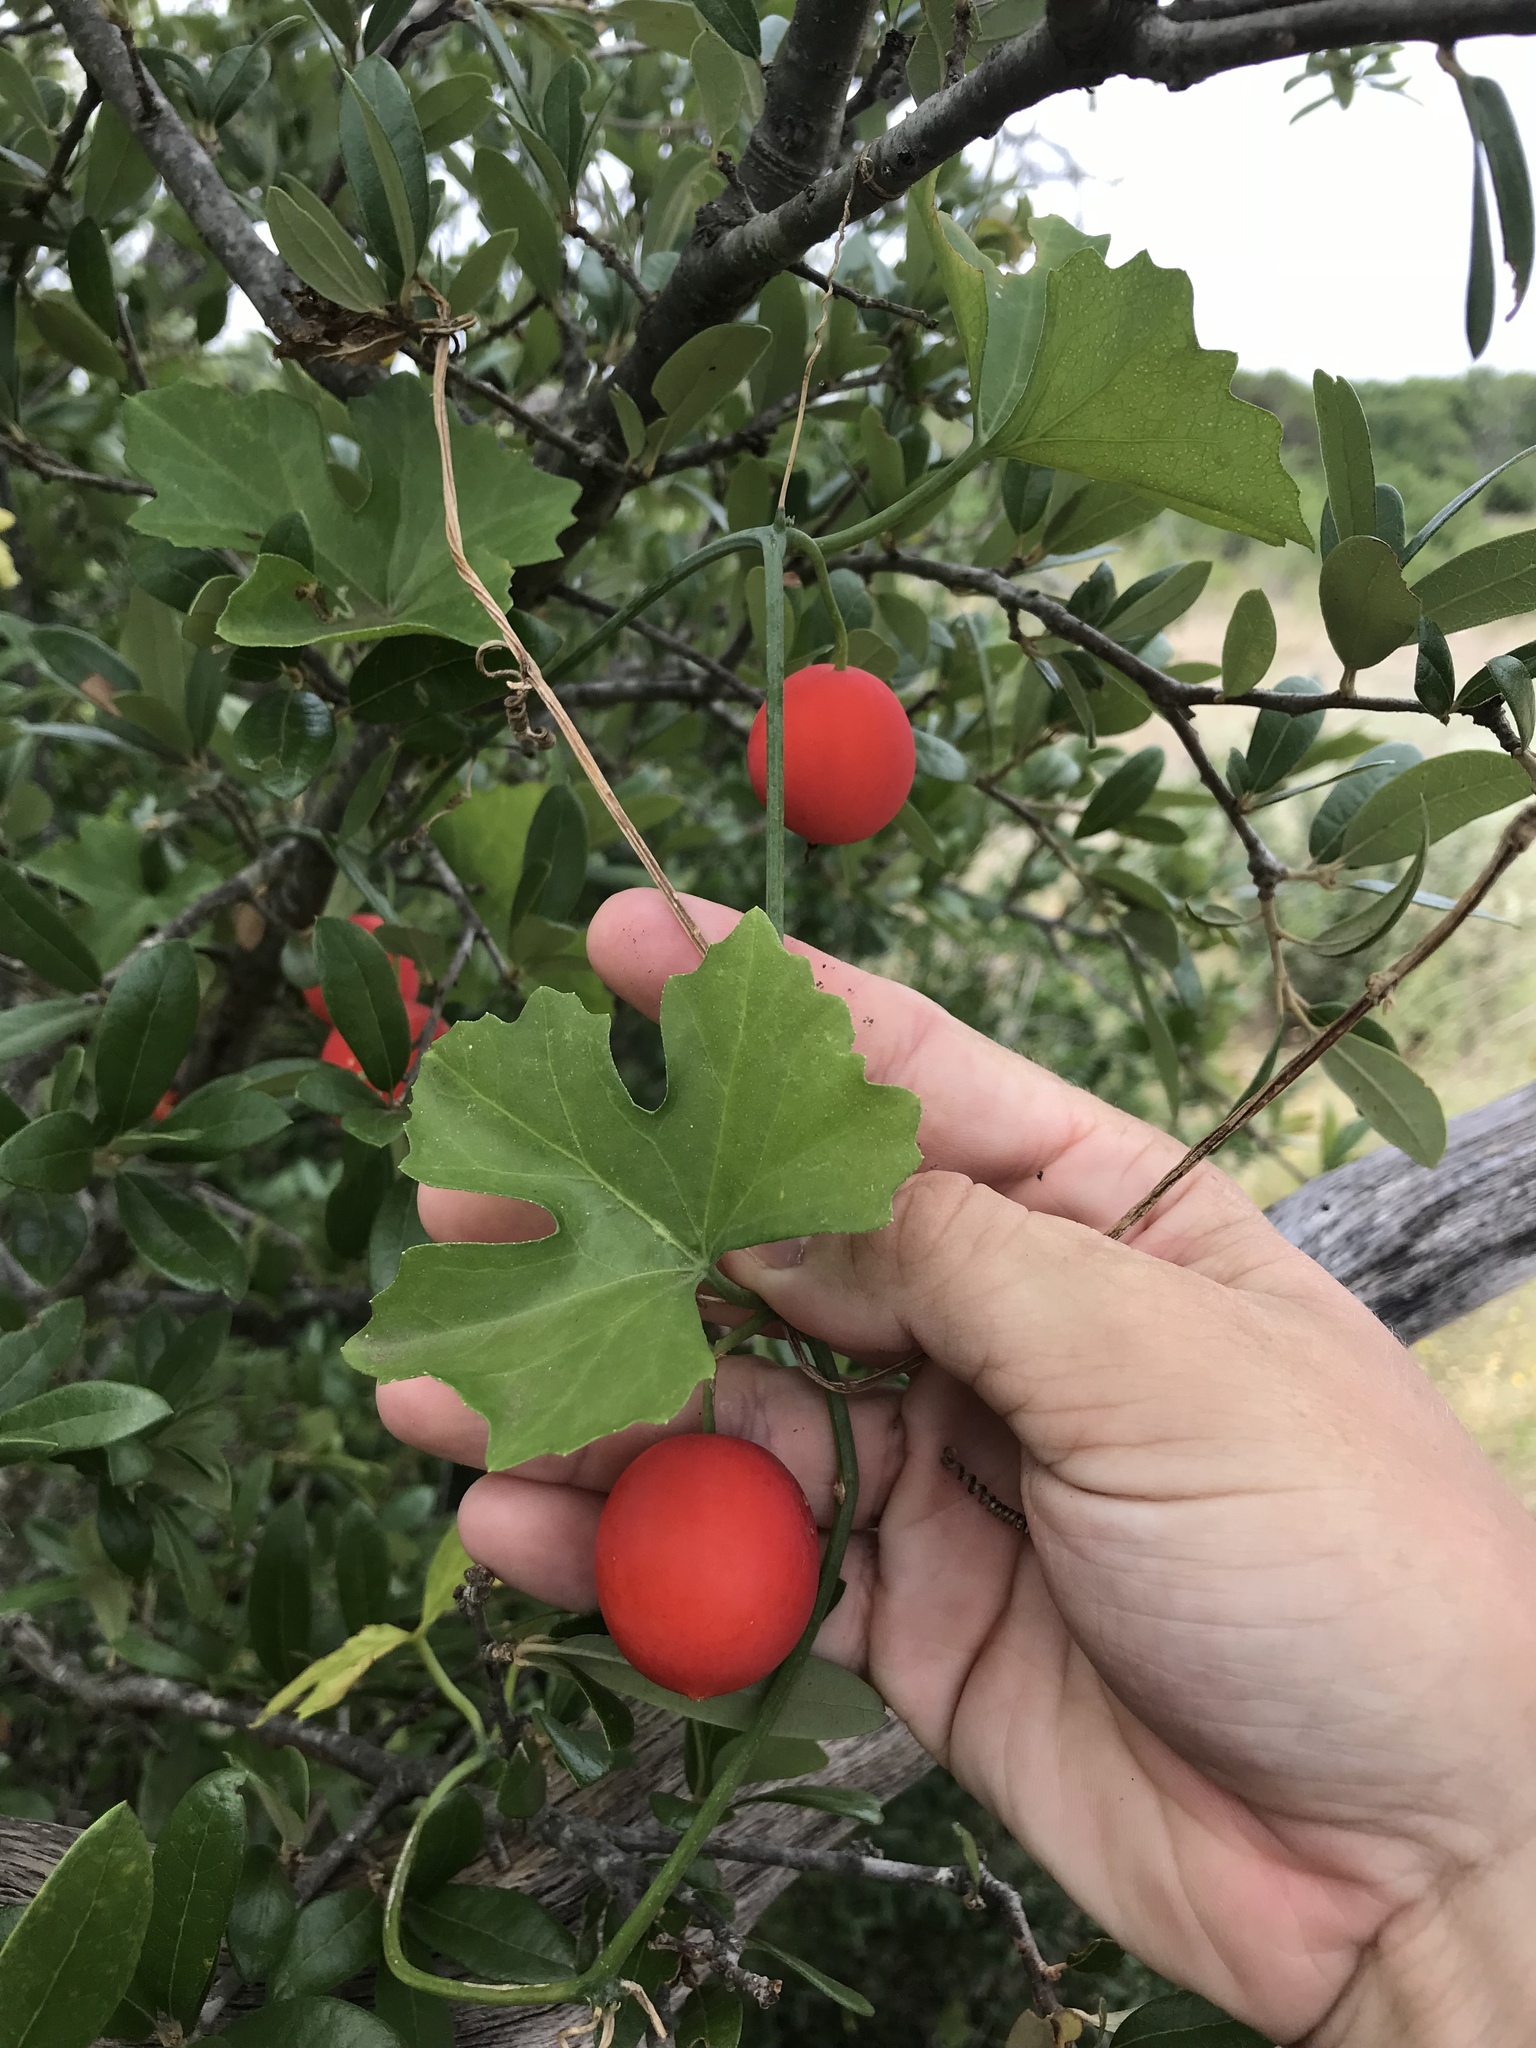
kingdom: Plantae
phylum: Tracheophyta
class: Magnoliopsida
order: Cucurbitales
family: Cucurbitaceae
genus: Ibervillea
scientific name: Ibervillea lindheimeri
